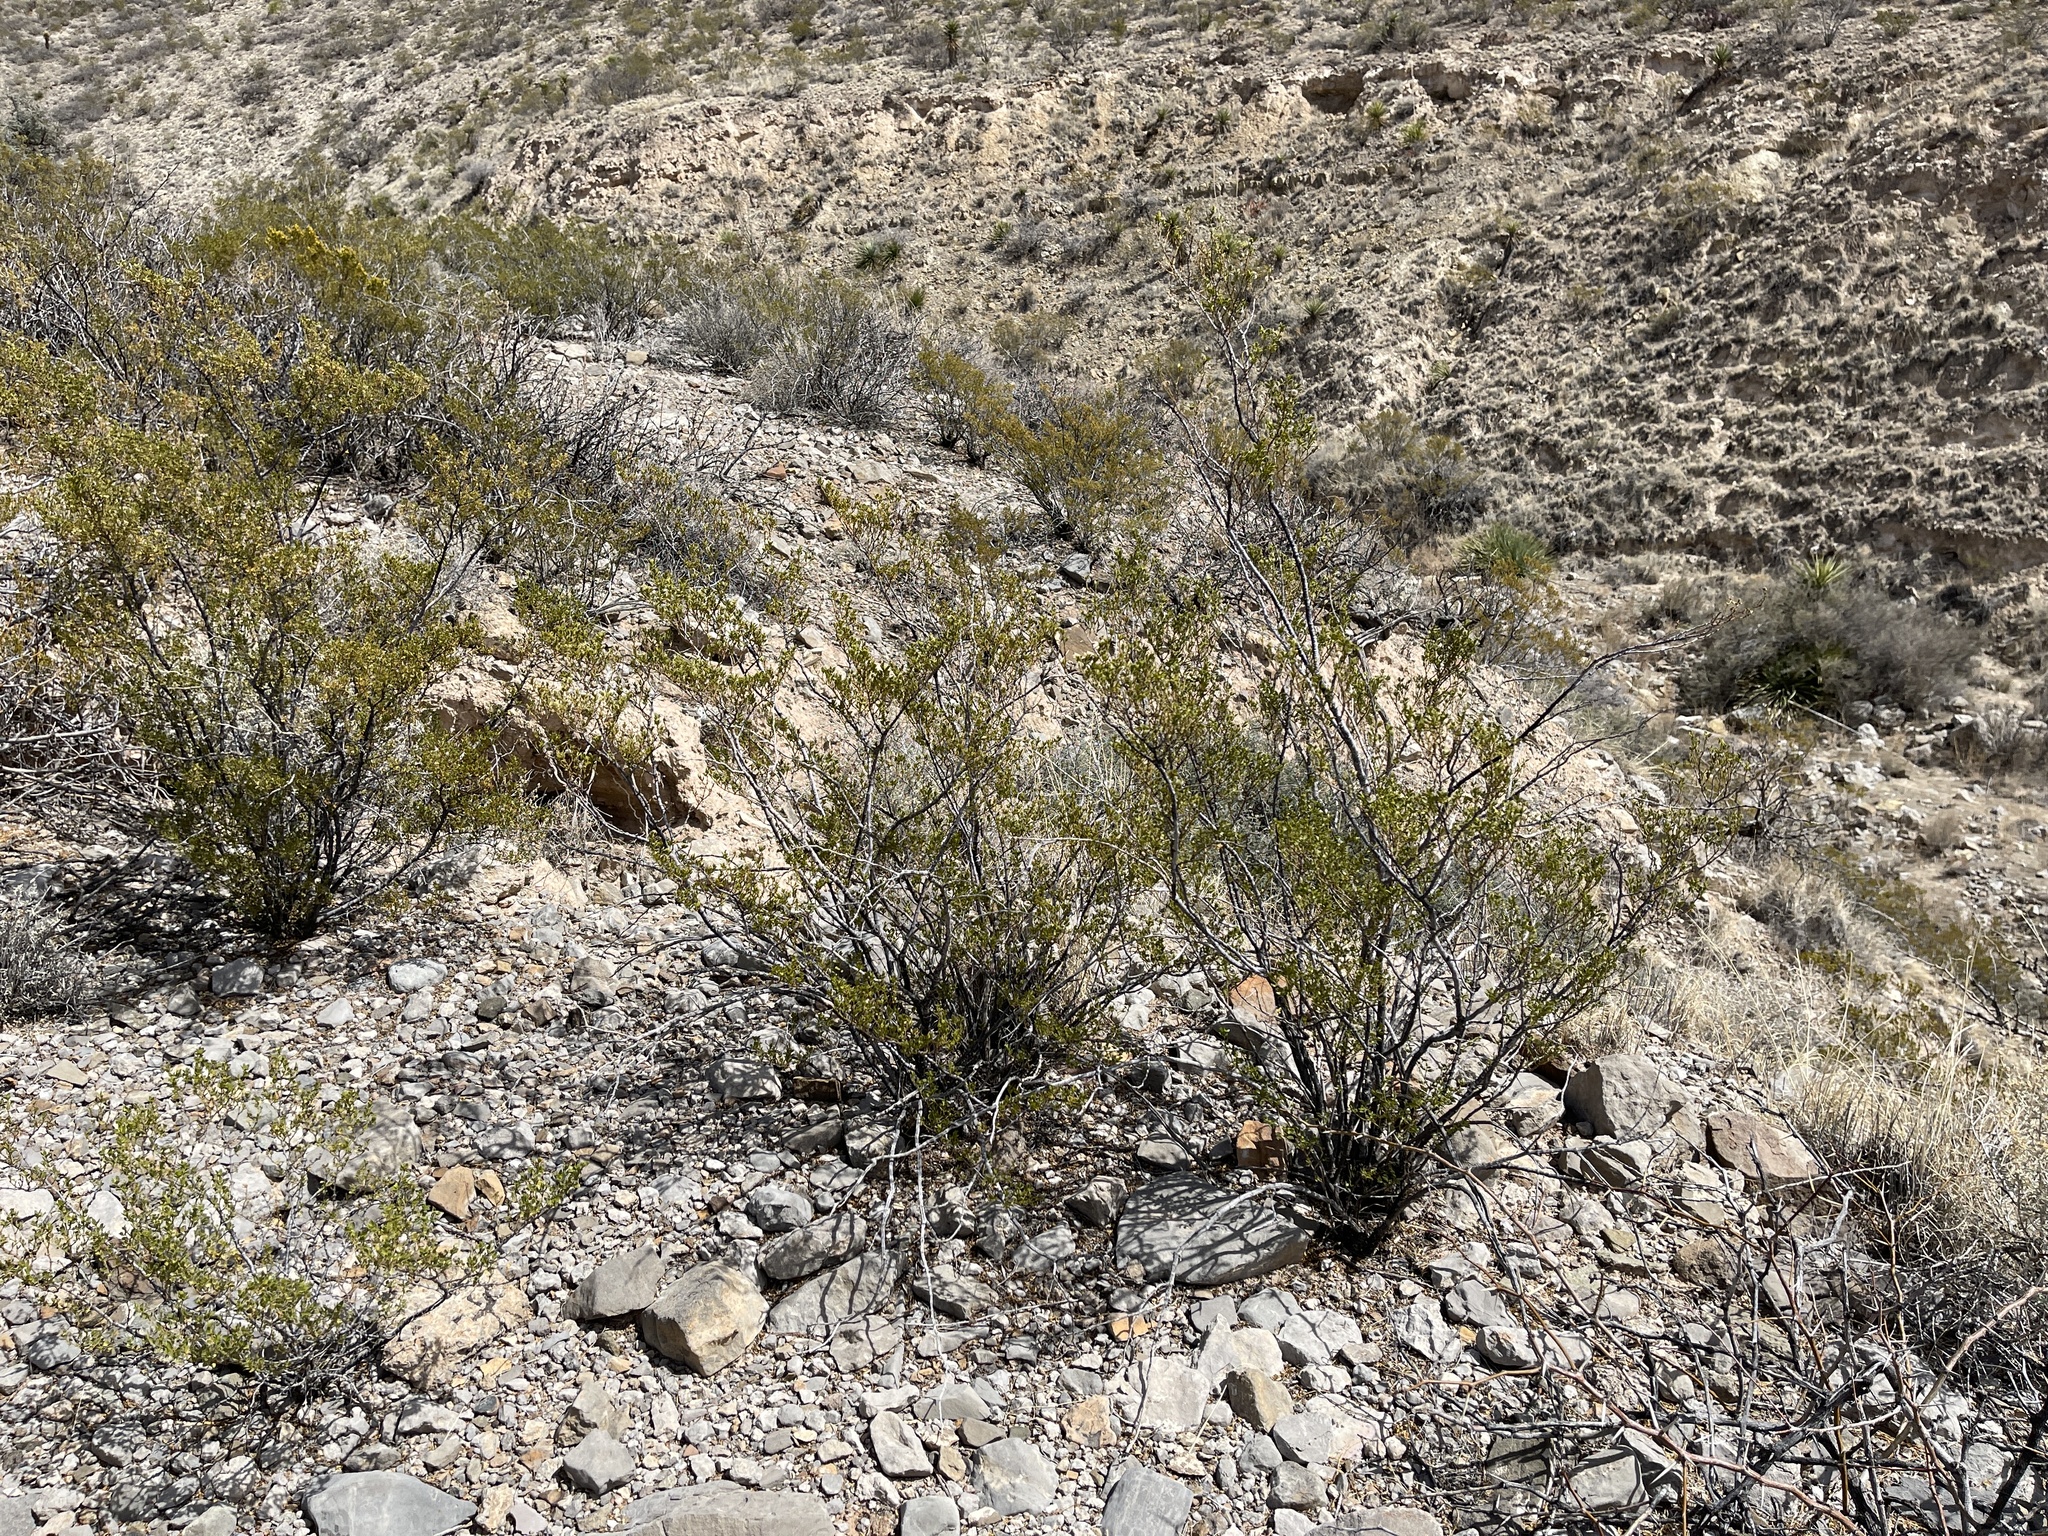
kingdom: Plantae
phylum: Tracheophyta
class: Magnoliopsida
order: Zygophyllales
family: Zygophyllaceae
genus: Larrea
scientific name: Larrea tridentata
